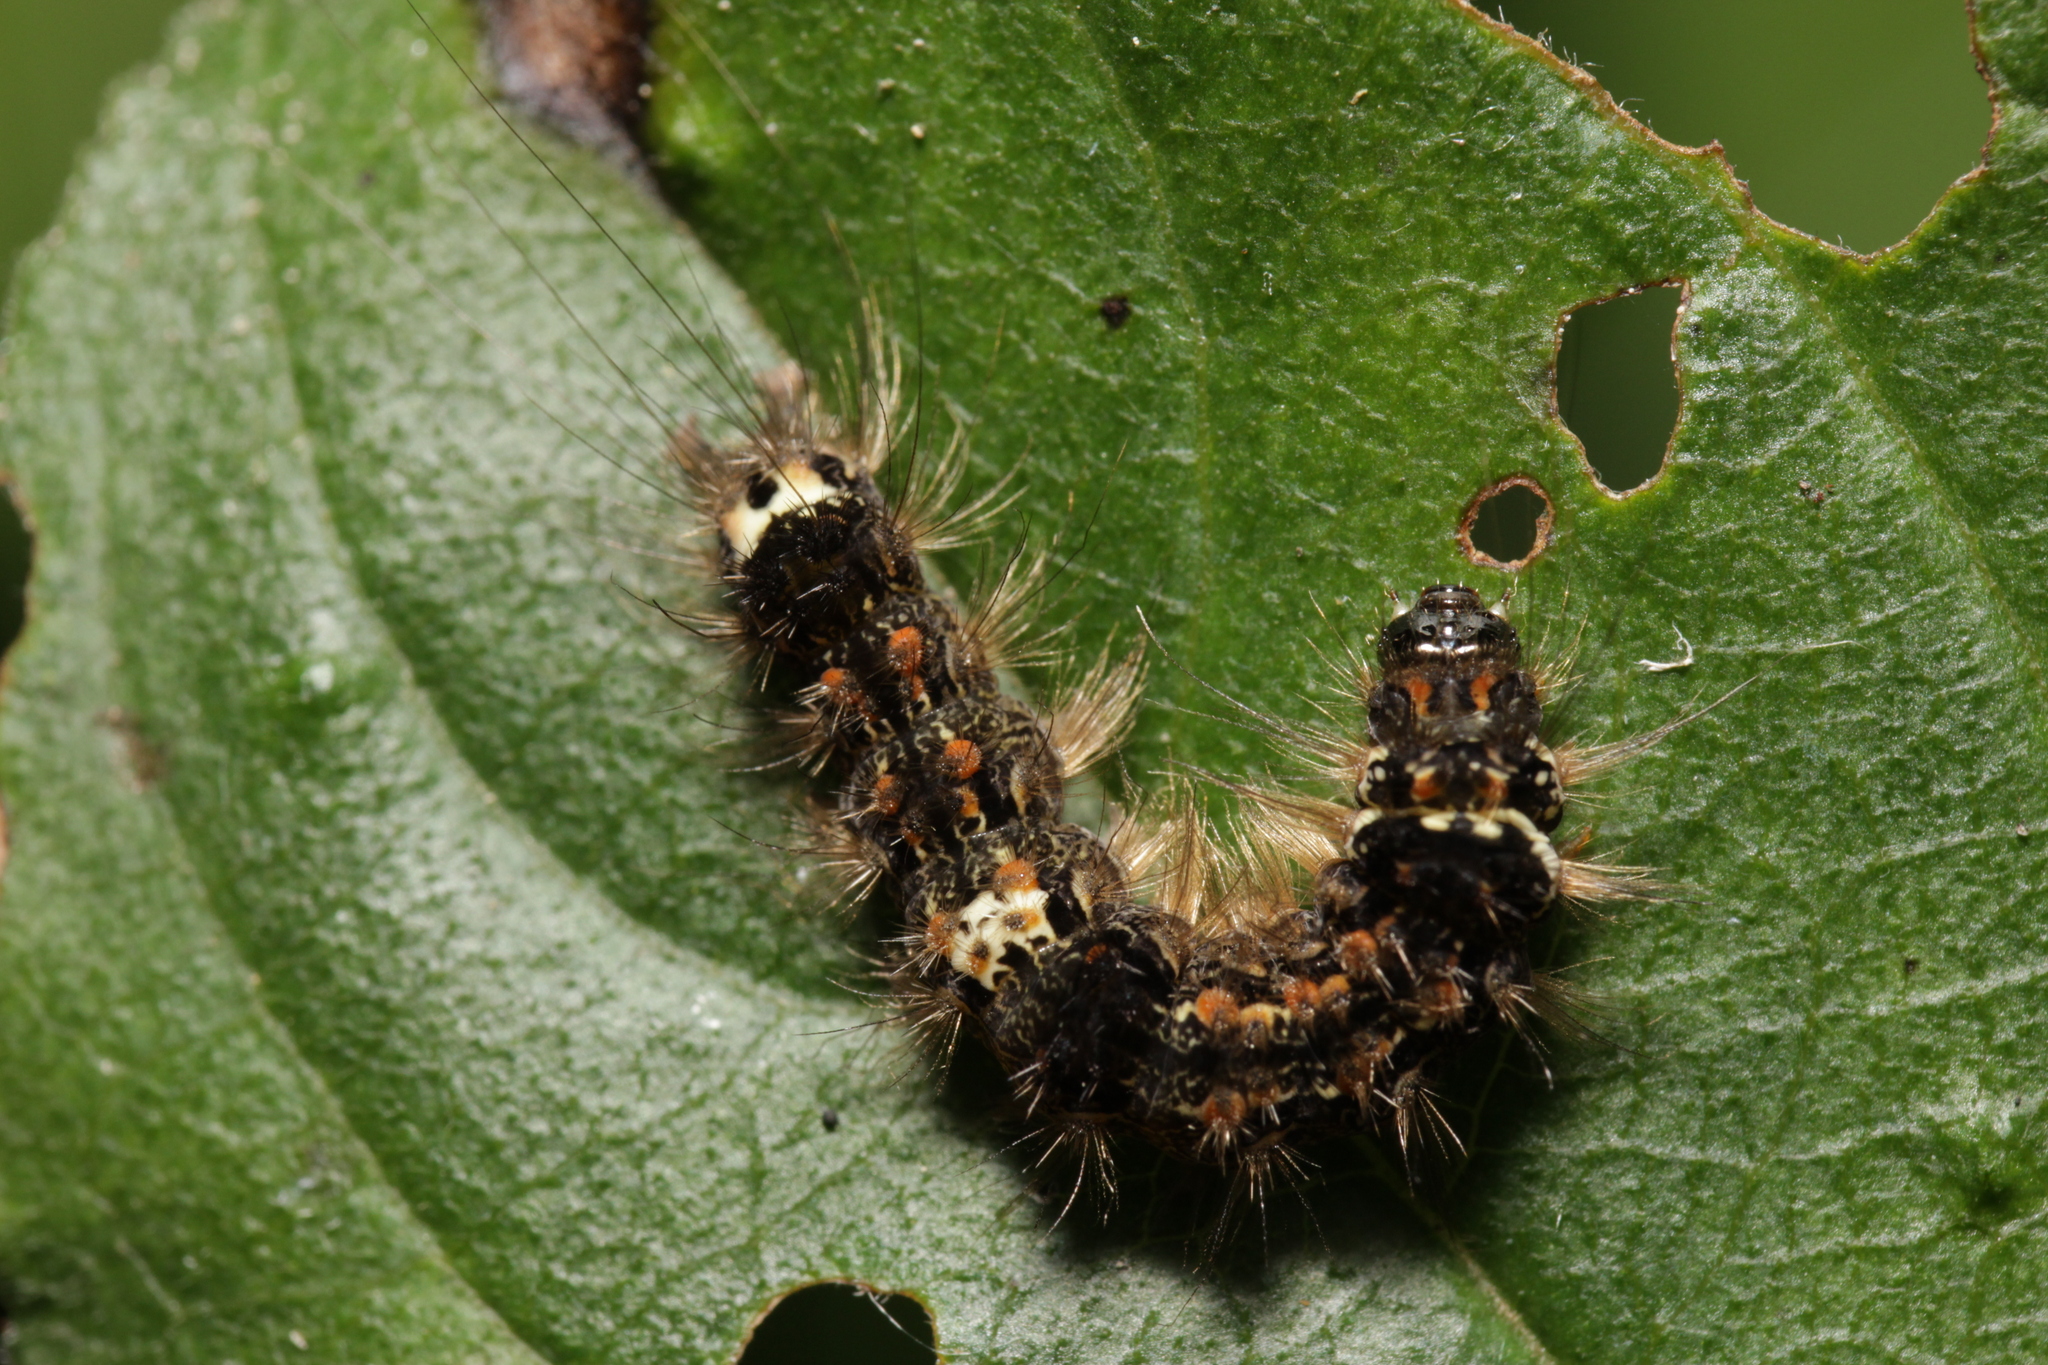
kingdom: Animalia
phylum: Arthropoda
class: Insecta
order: Lepidoptera
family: Erebidae
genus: Wittia
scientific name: Wittia sororcula
